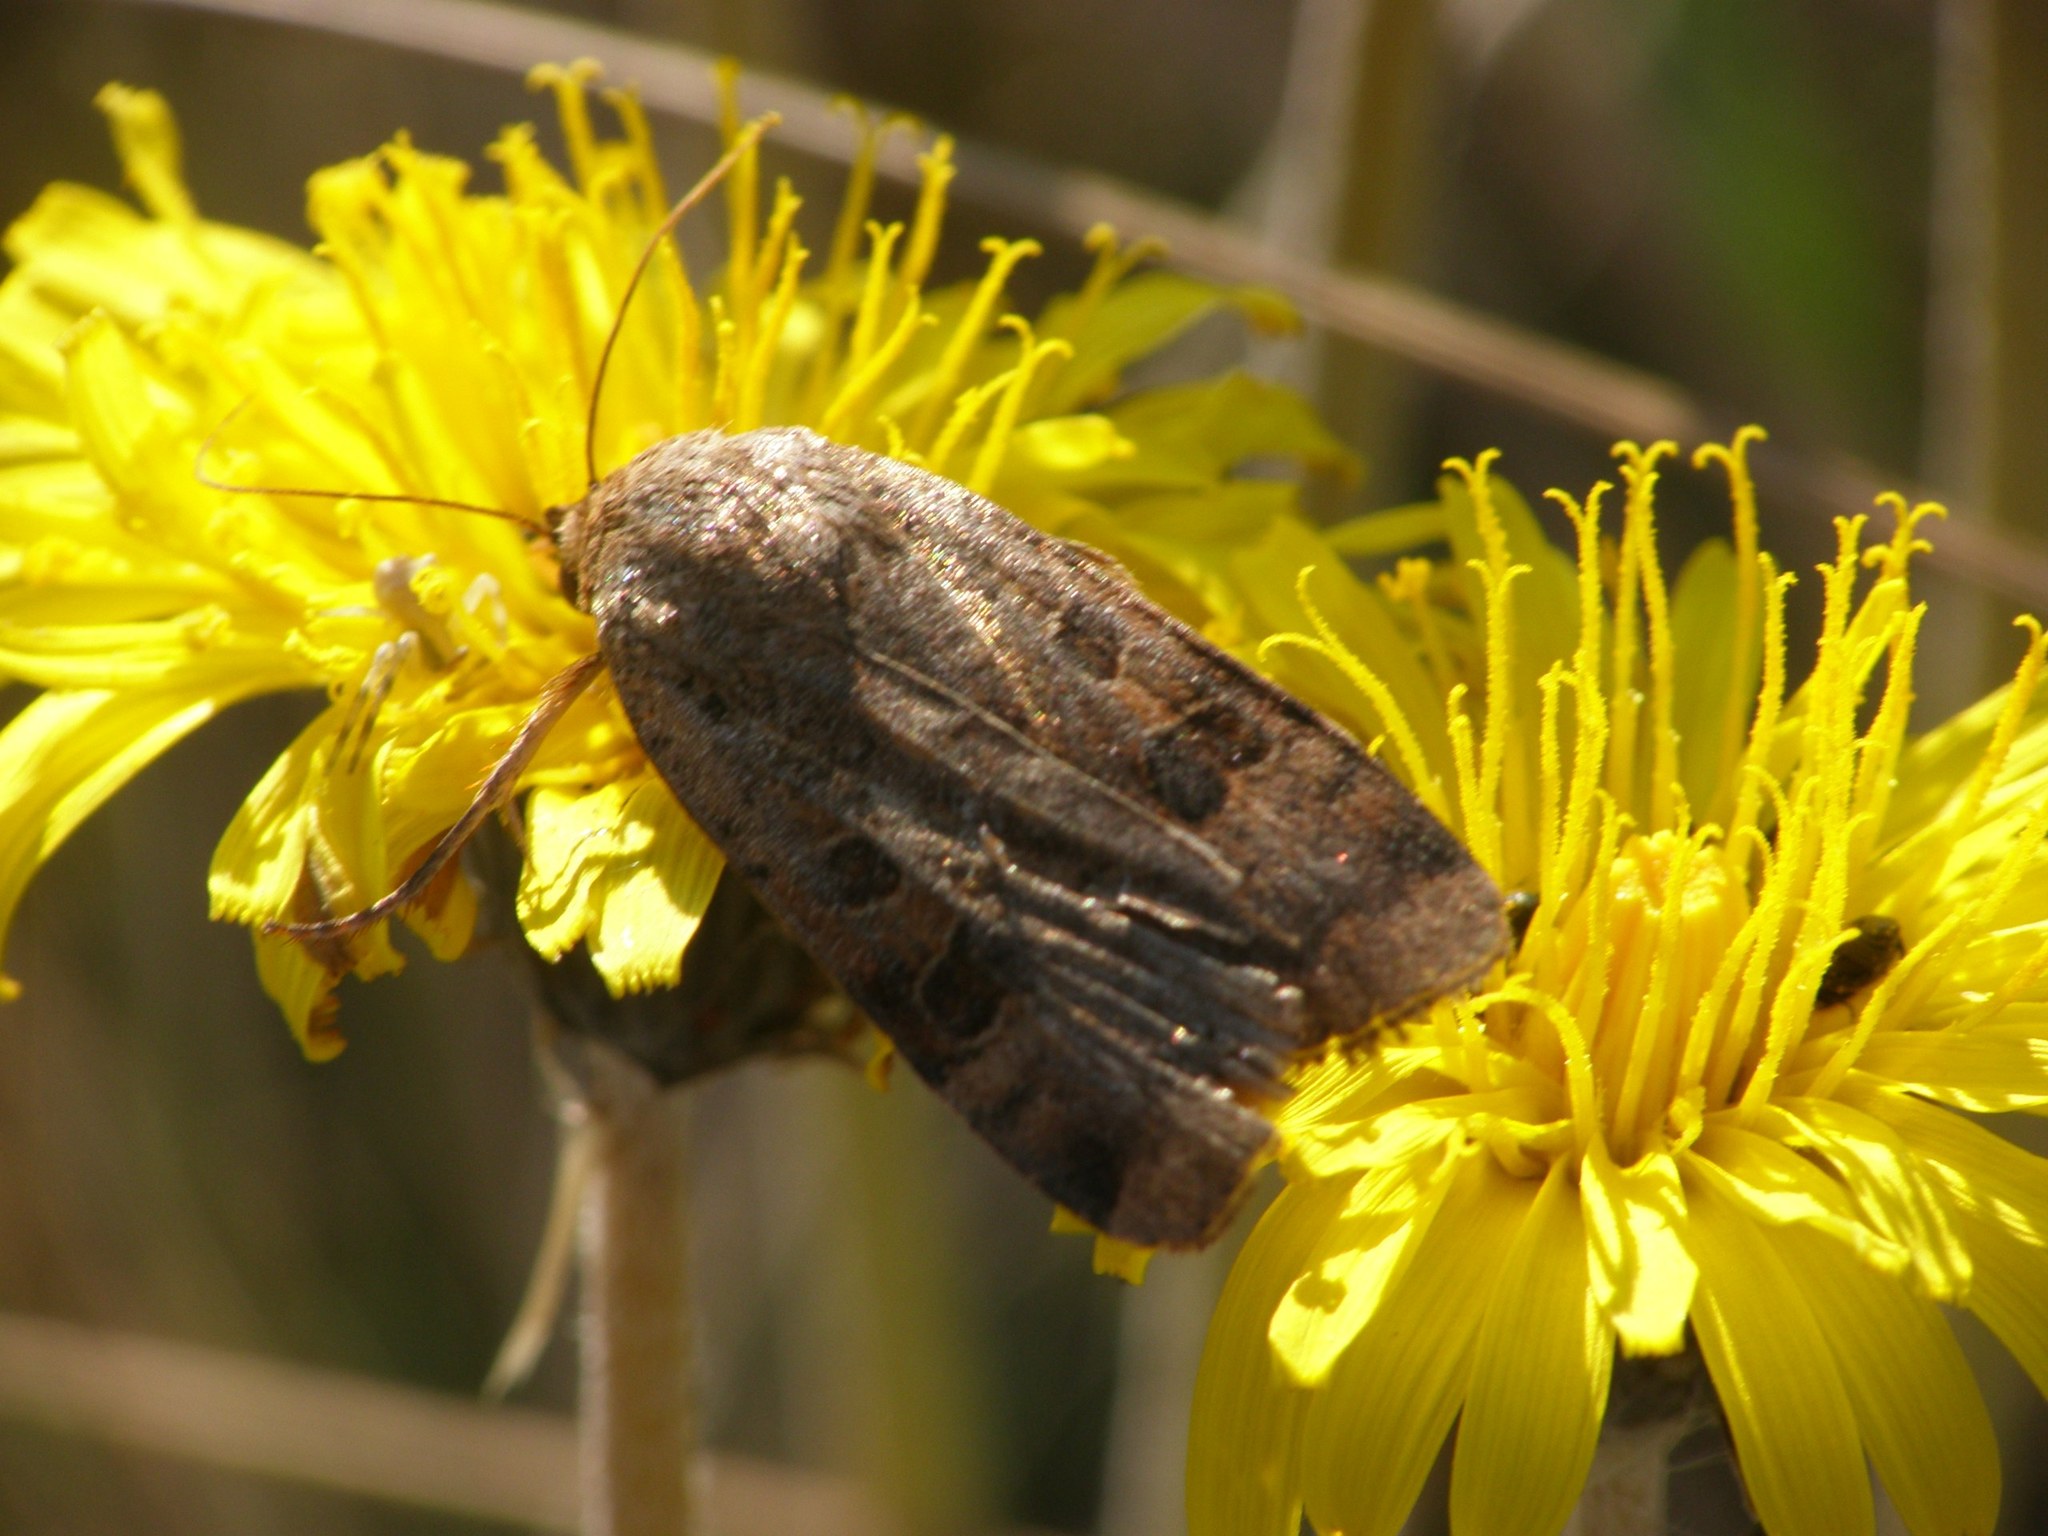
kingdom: Animalia
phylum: Arthropoda
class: Insecta
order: Lepidoptera
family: Noctuidae
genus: Noctua
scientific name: Noctua interposita
